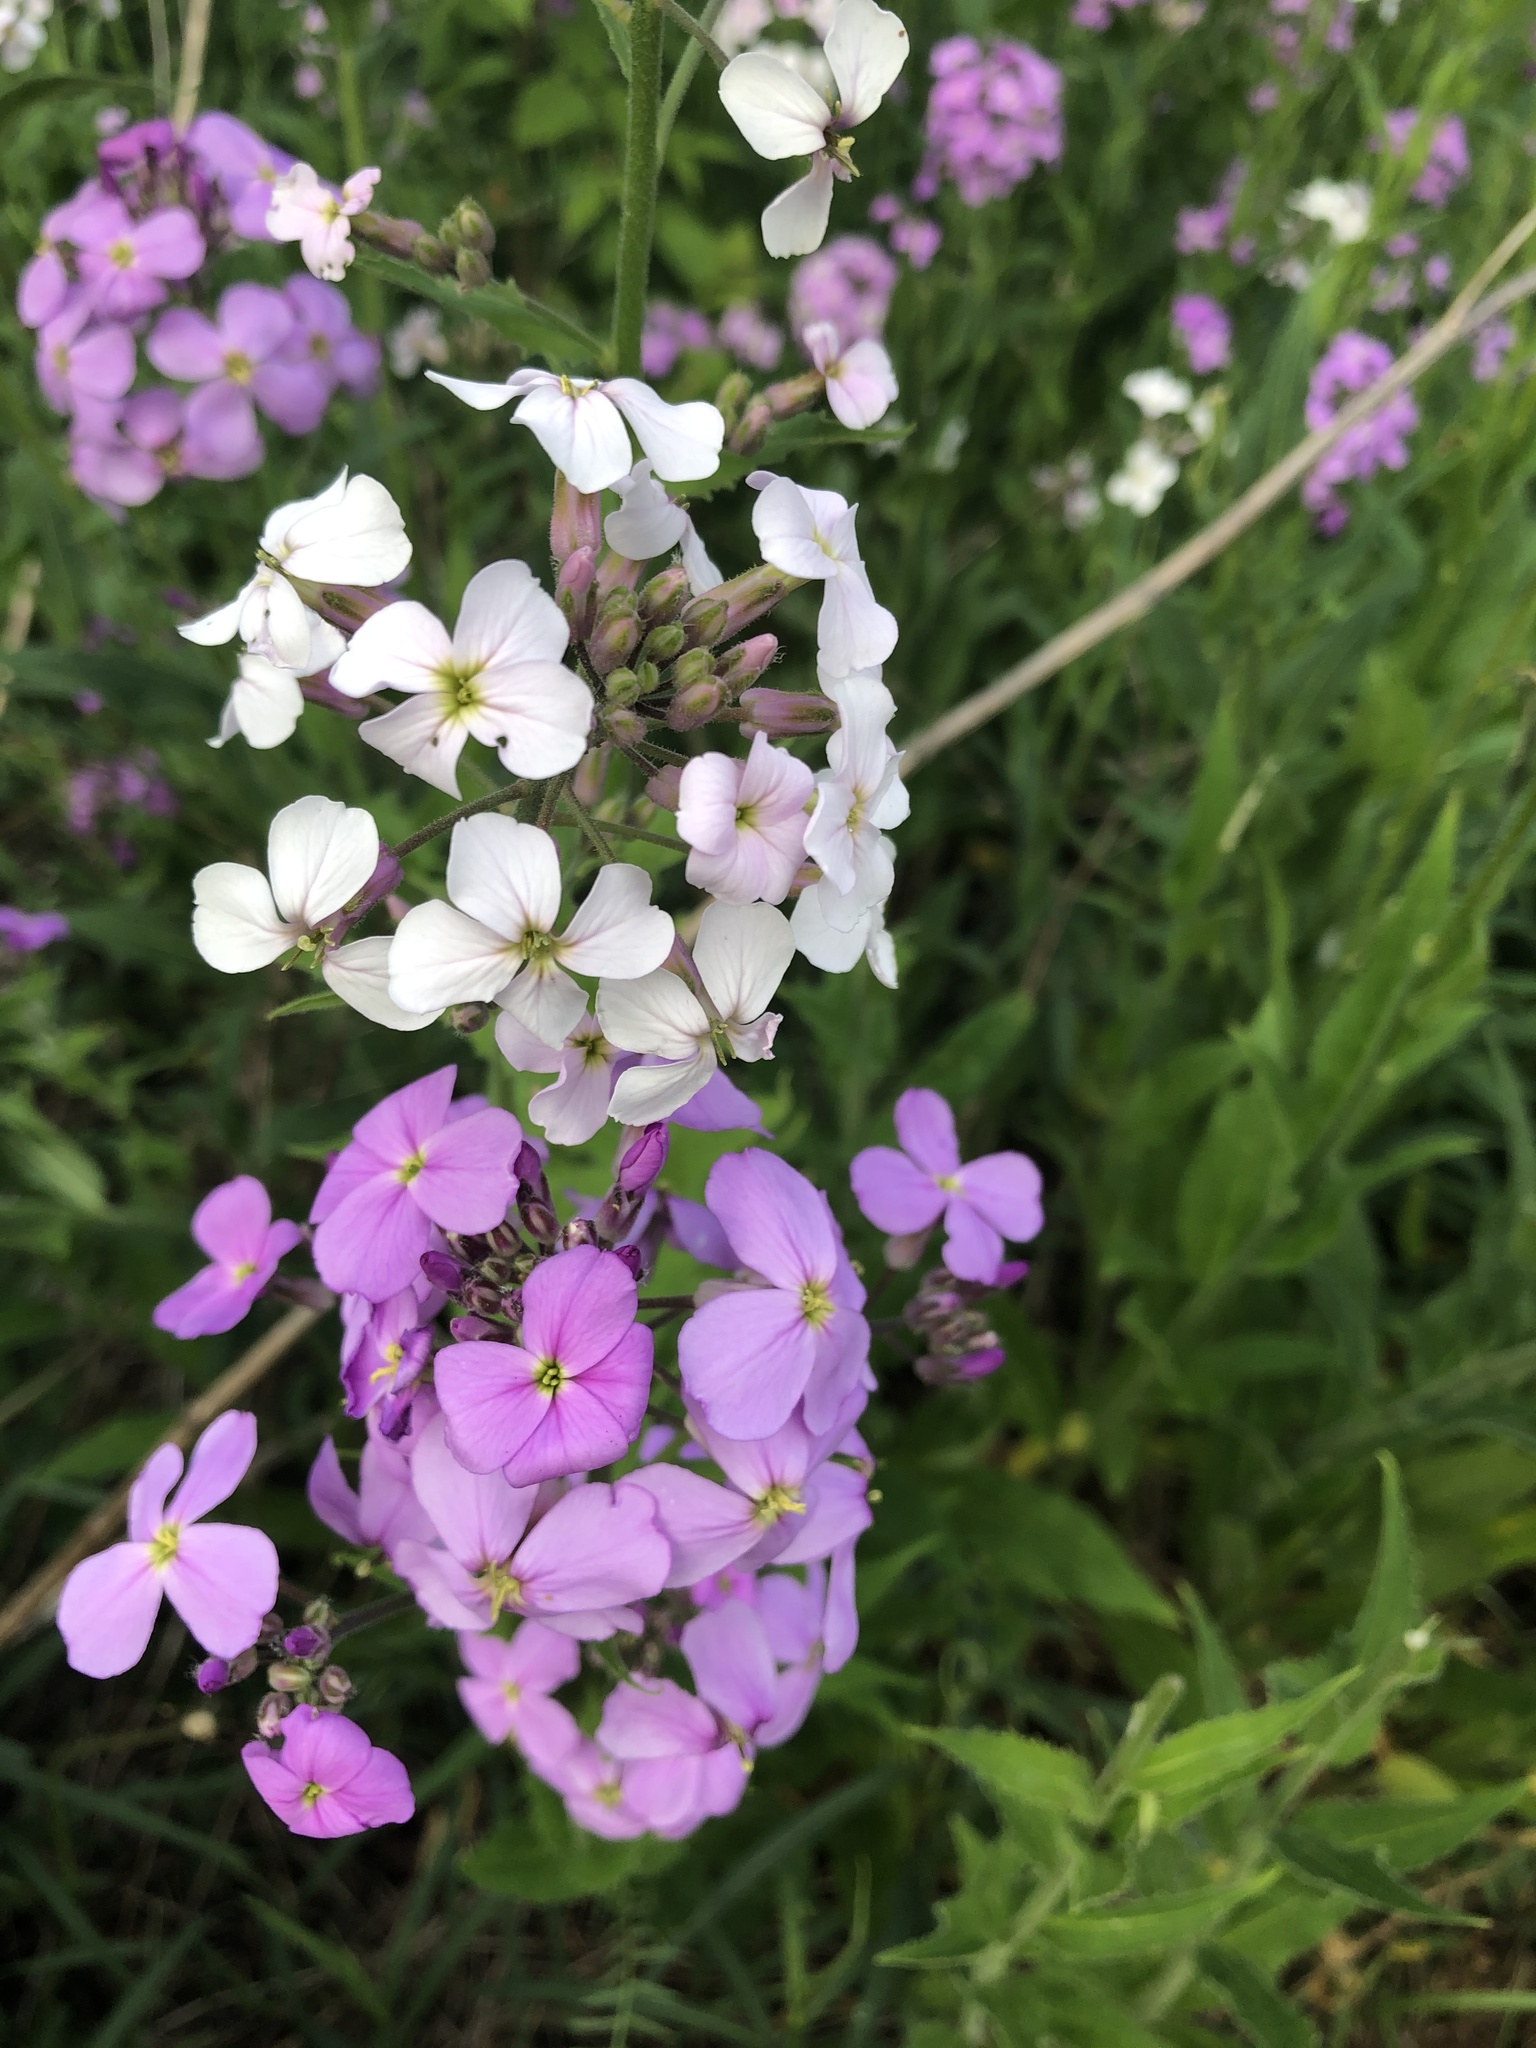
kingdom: Plantae
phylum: Tracheophyta
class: Magnoliopsida
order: Brassicales
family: Brassicaceae
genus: Hesperis
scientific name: Hesperis matronalis
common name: Dame's-violet
